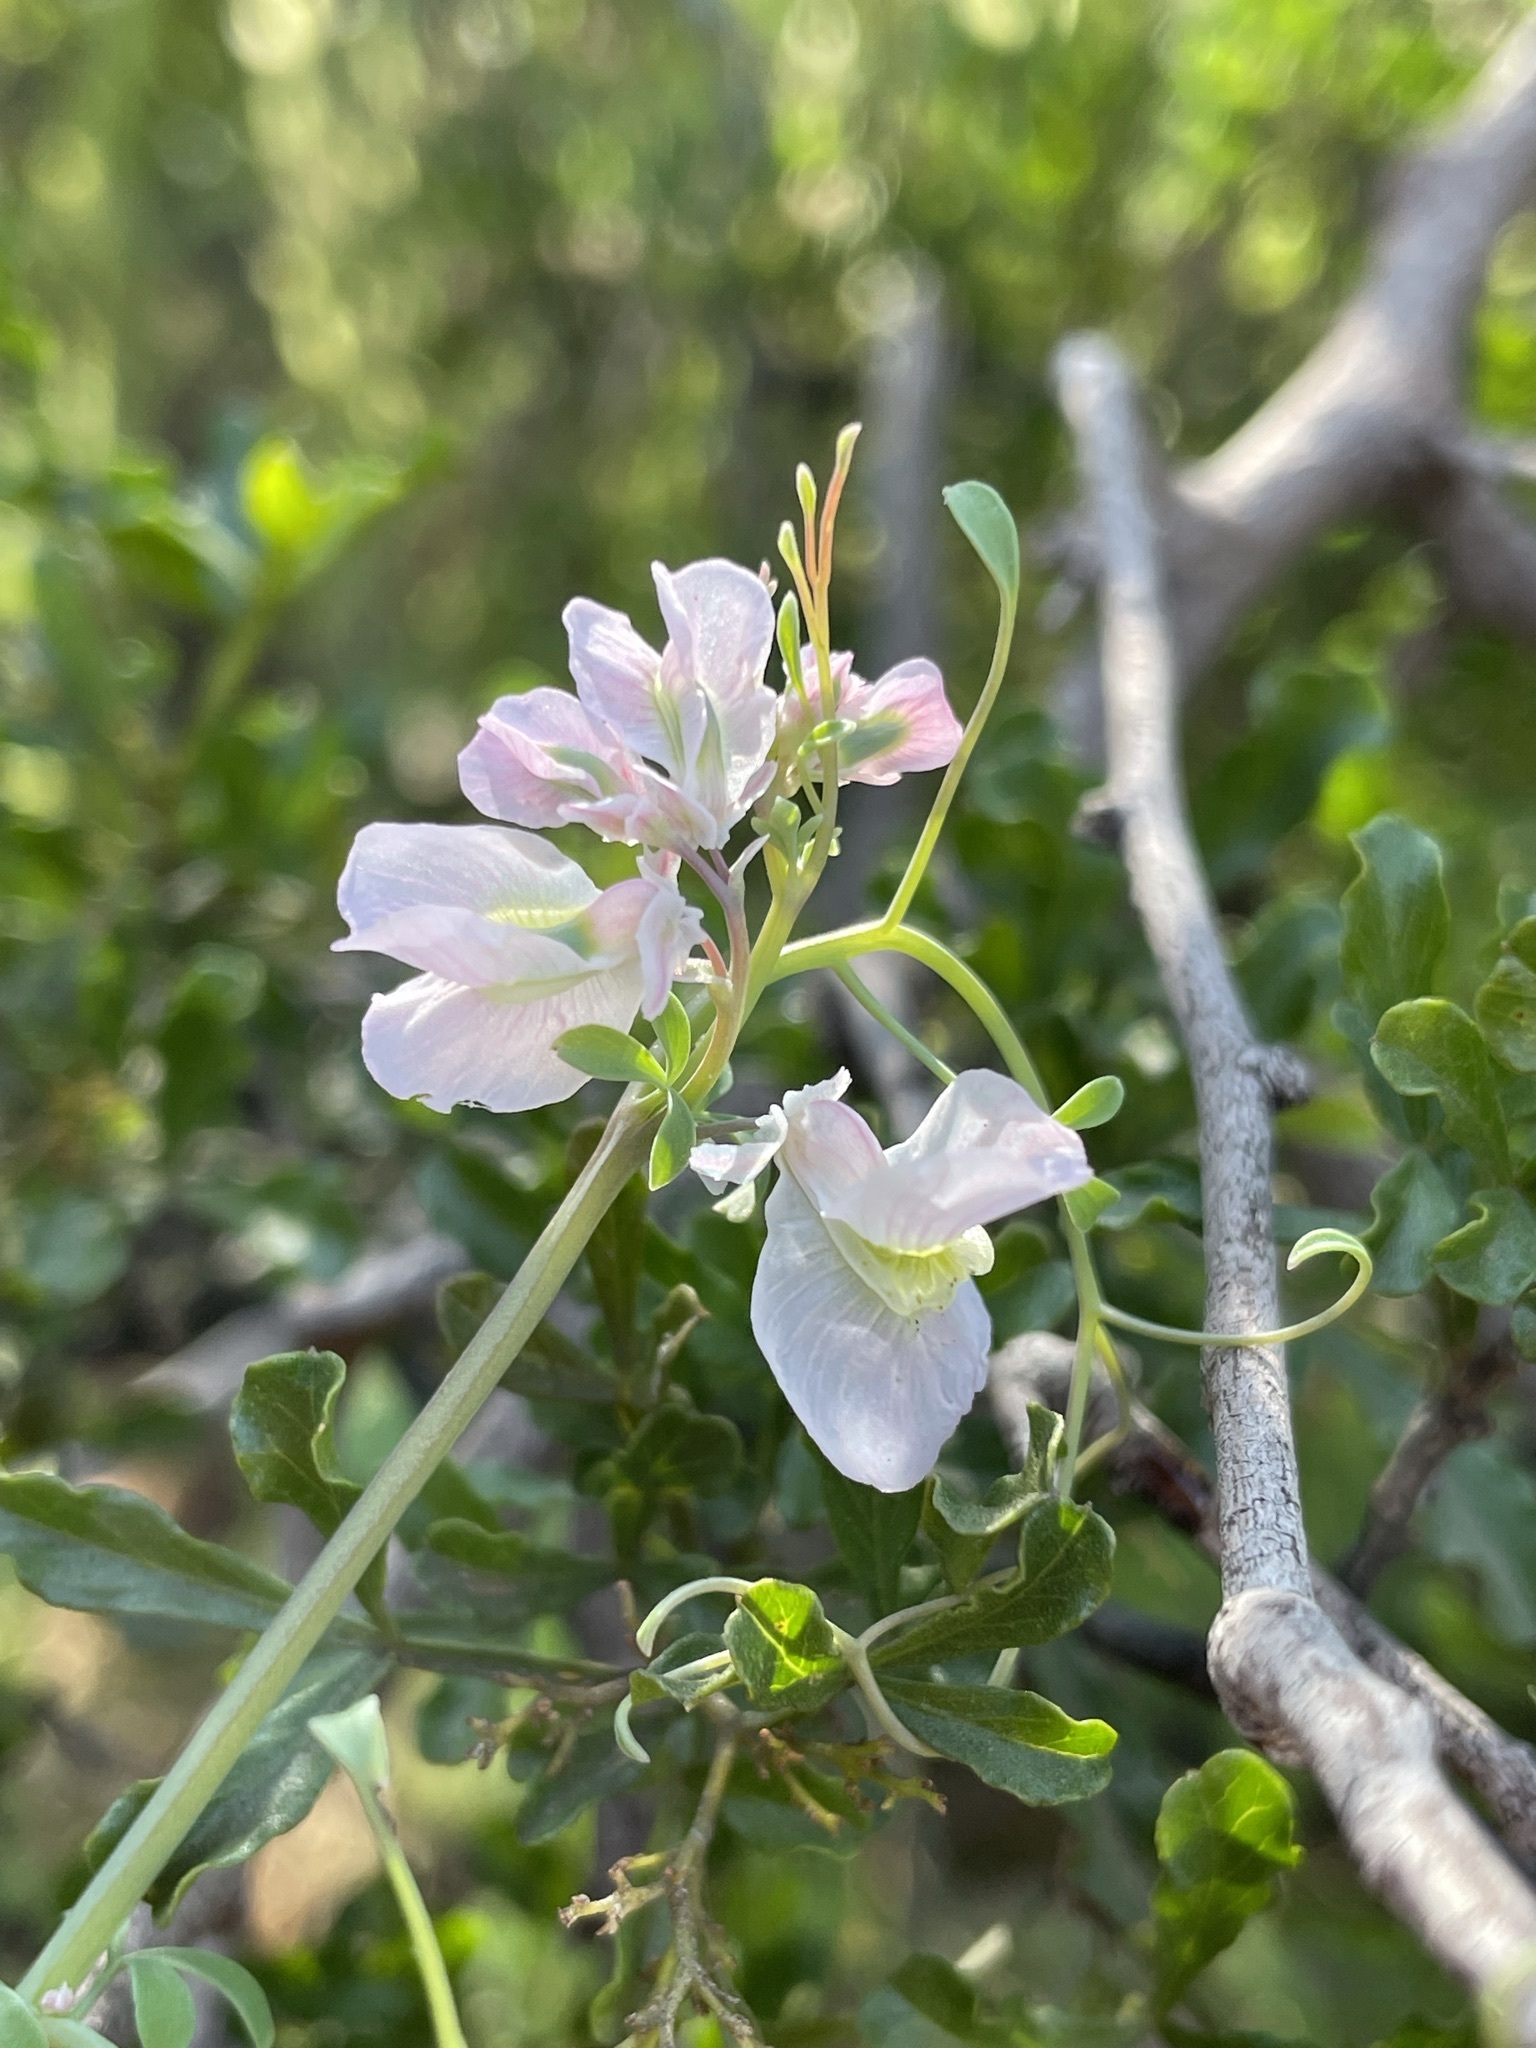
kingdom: Plantae
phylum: Tracheophyta
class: Magnoliopsida
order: Ranunculales
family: Papaveraceae
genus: Cysticapnos
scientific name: Cysticapnos vesicaria
